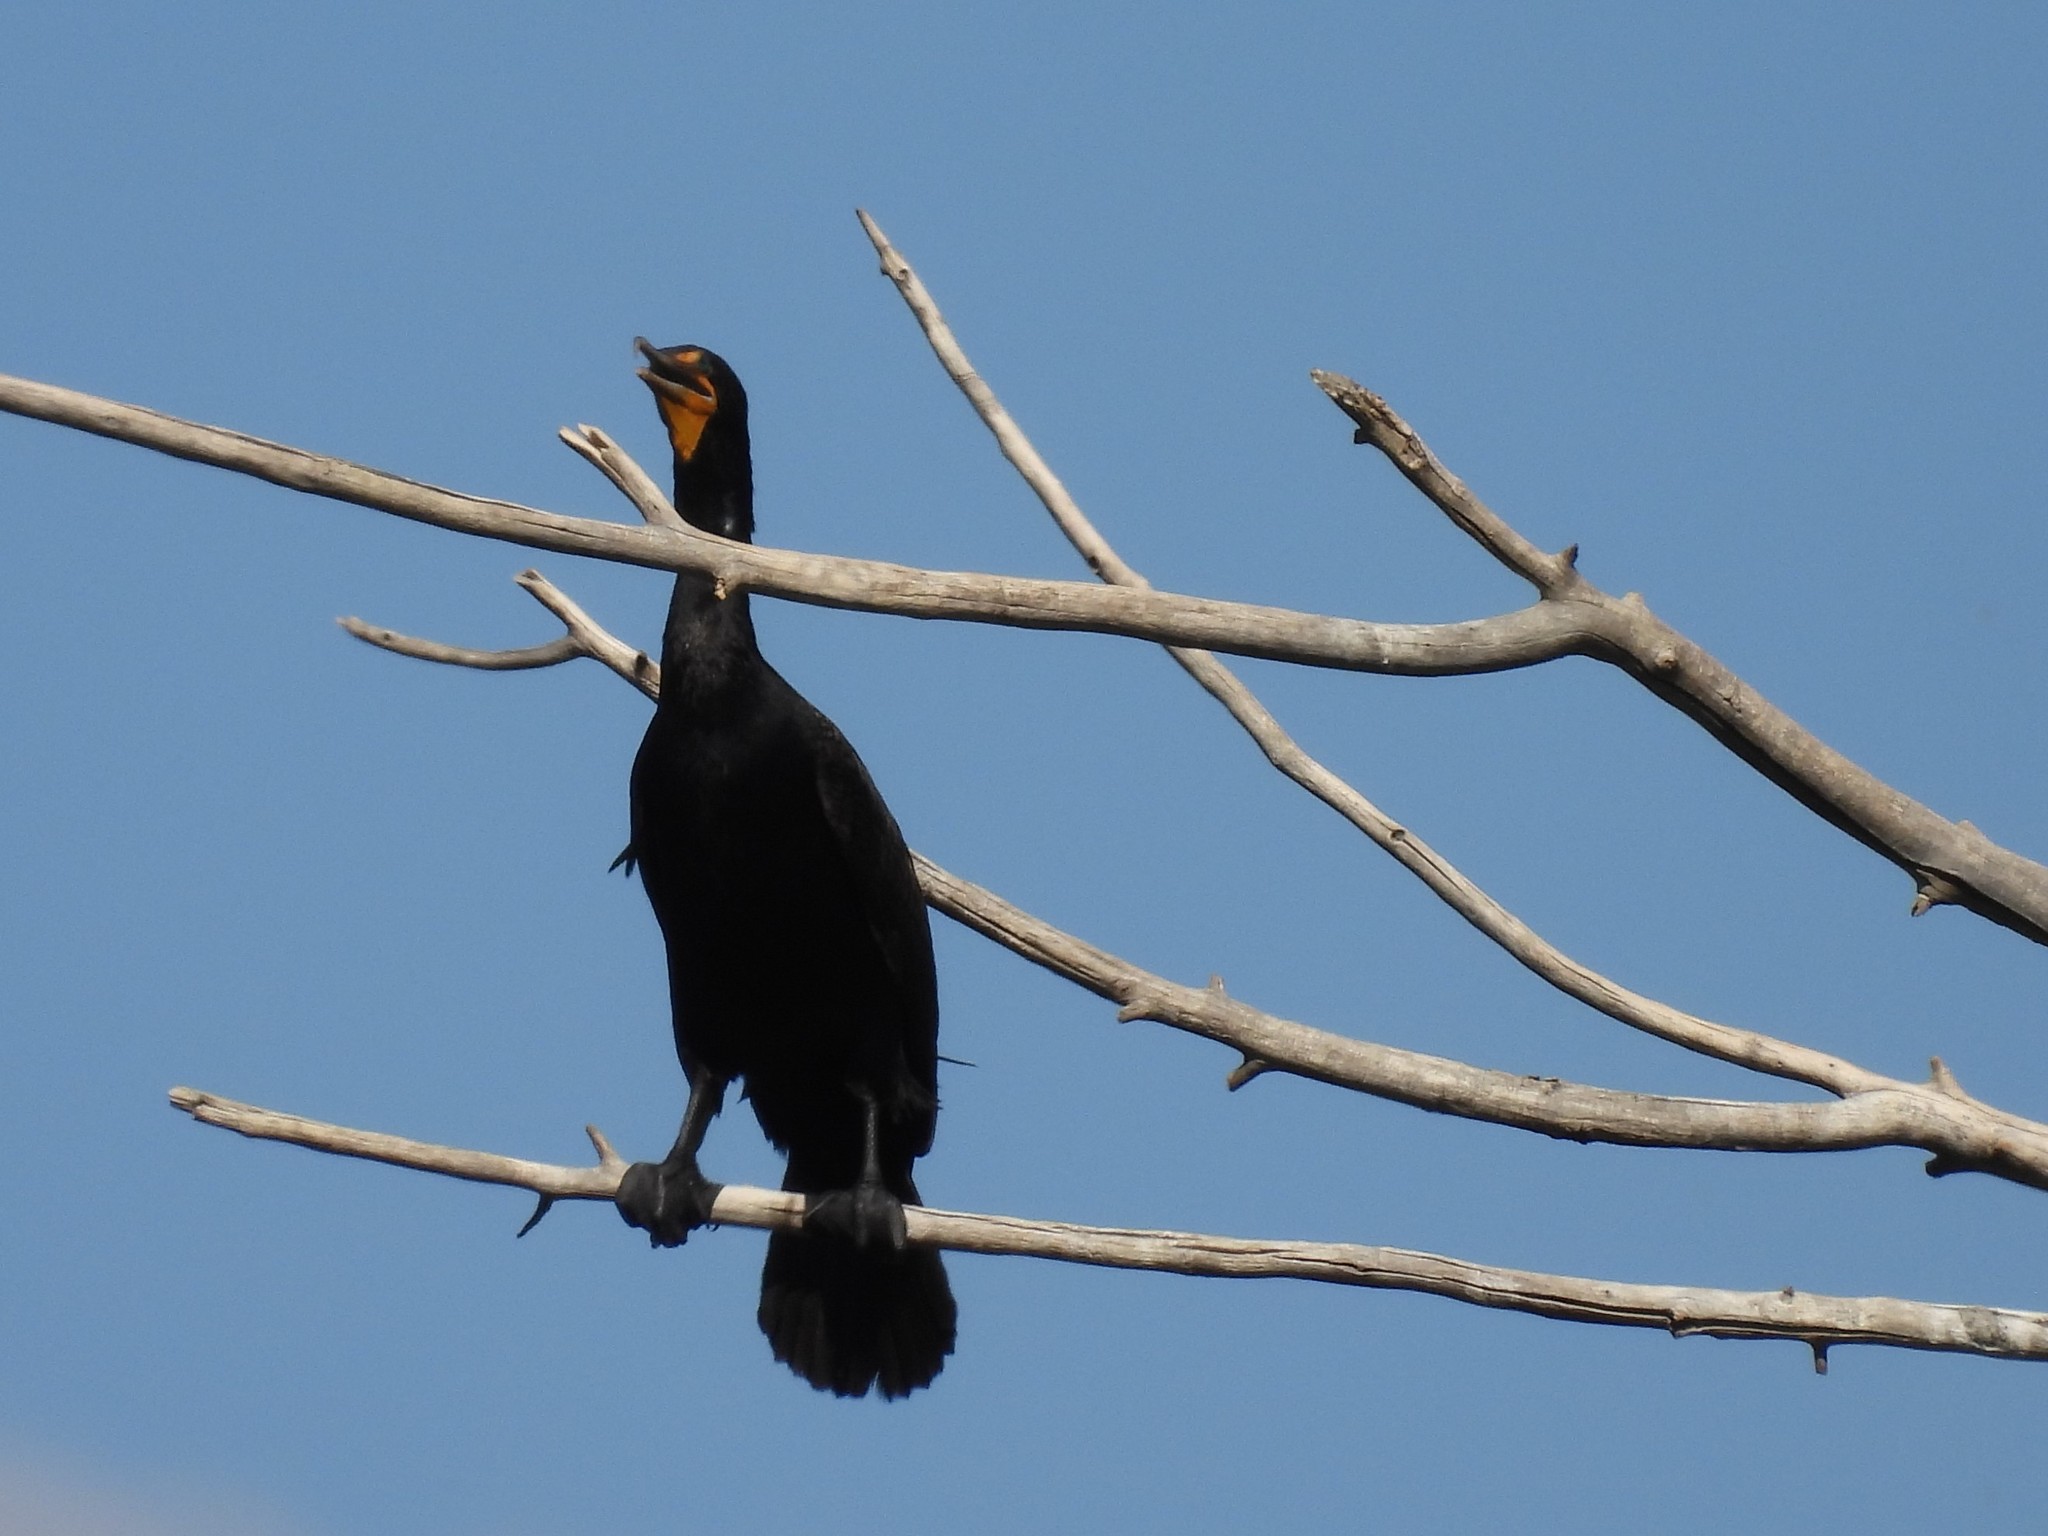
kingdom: Animalia
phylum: Chordata
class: Aves
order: Suliformes
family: Phalacrocoracidae
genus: Phalacrocorax
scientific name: Phalacrocorax auritus
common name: Double-crested cormorant
